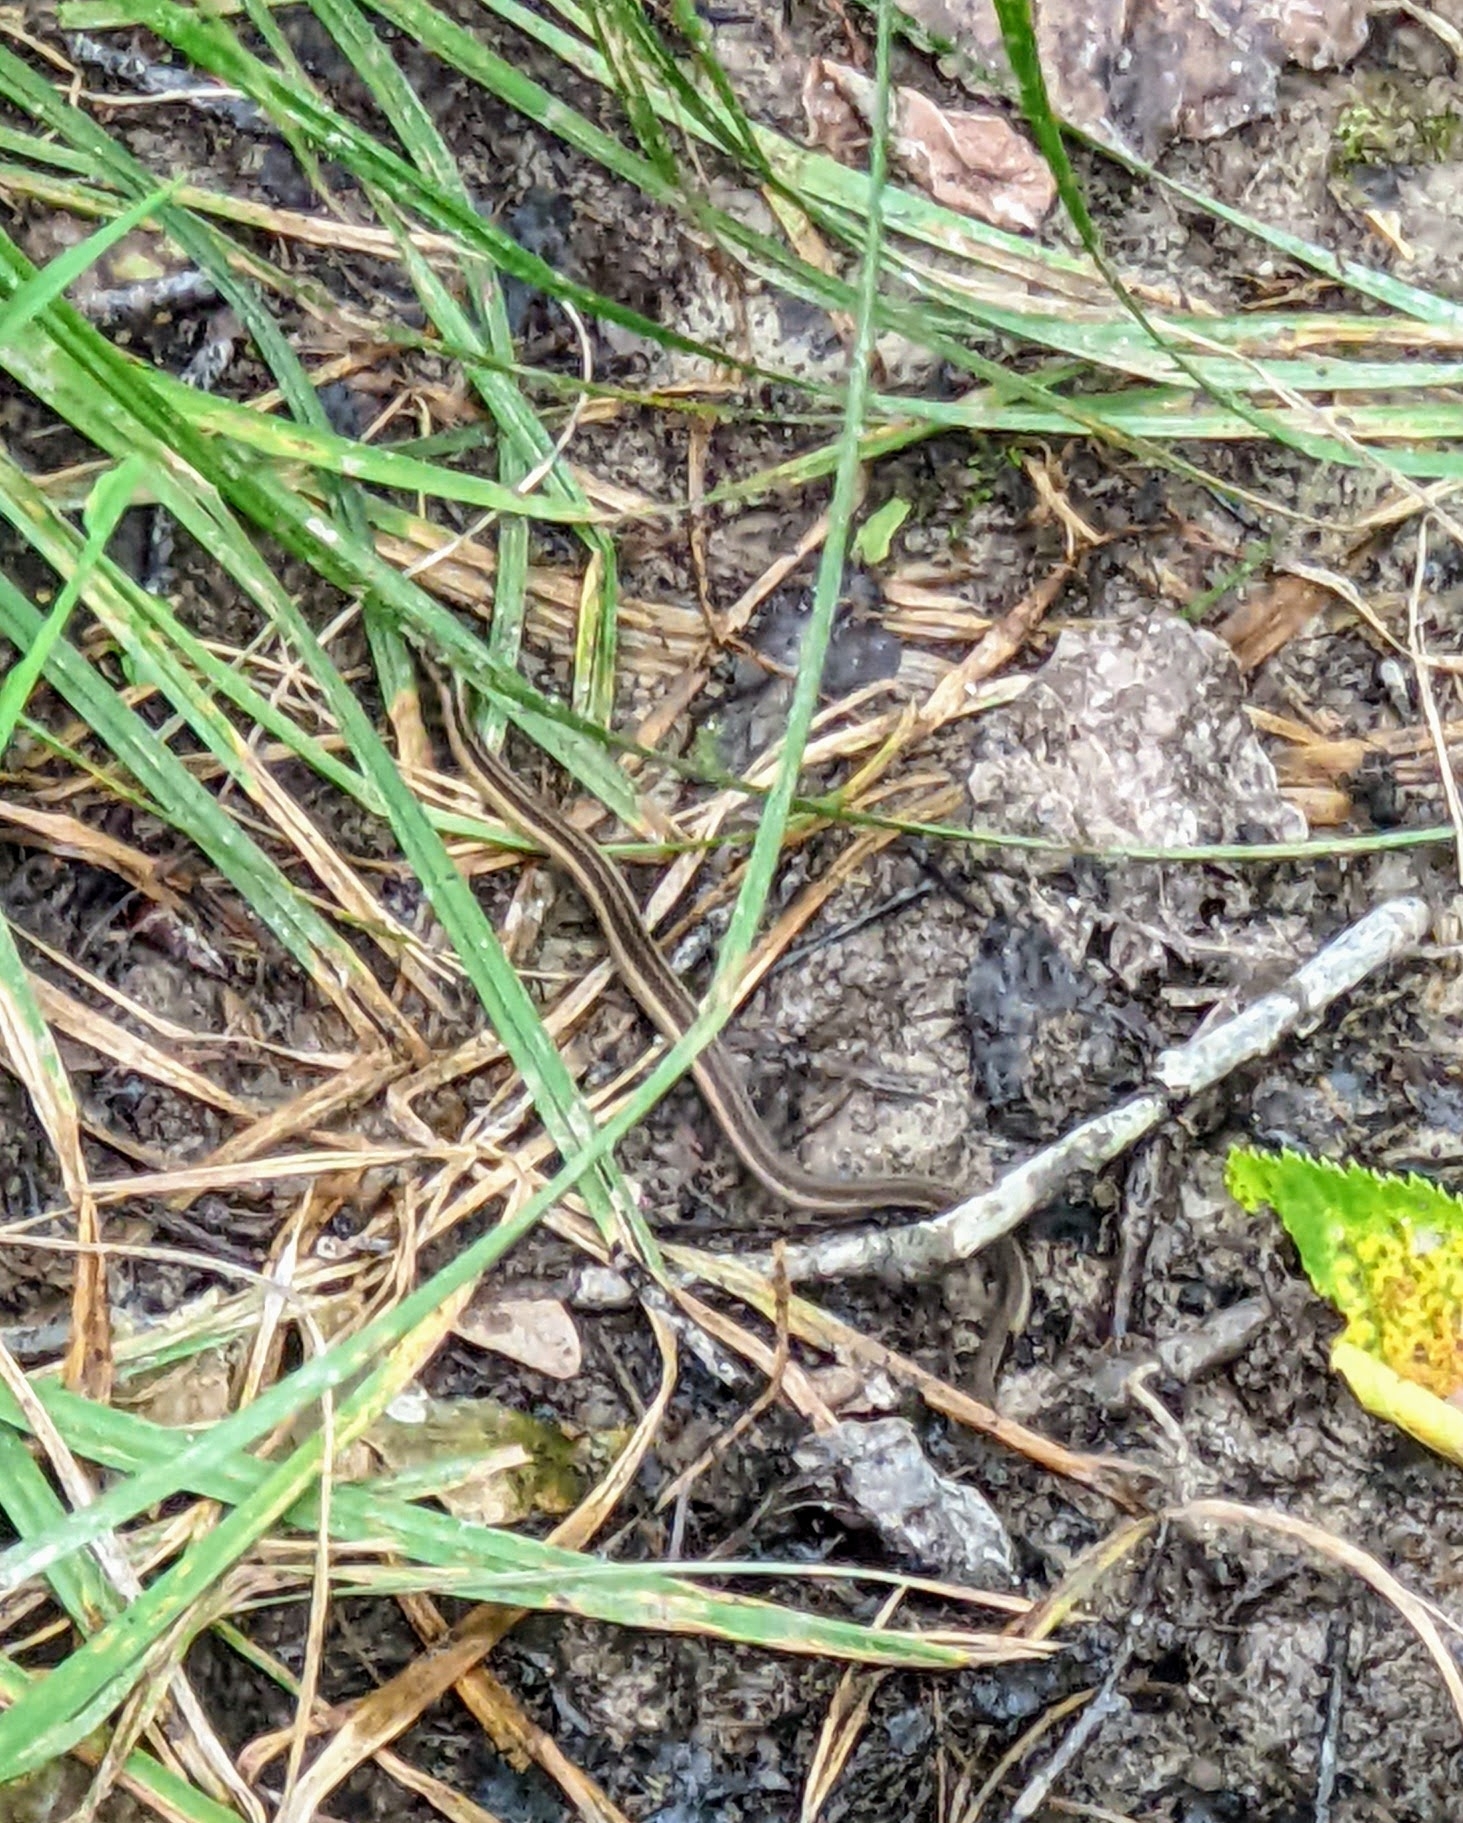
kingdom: Animalia
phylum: Chordata
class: Squamata
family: Colubridae
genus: Thamnophis
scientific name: Thamnophis sirtalis
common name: Common garter snake
